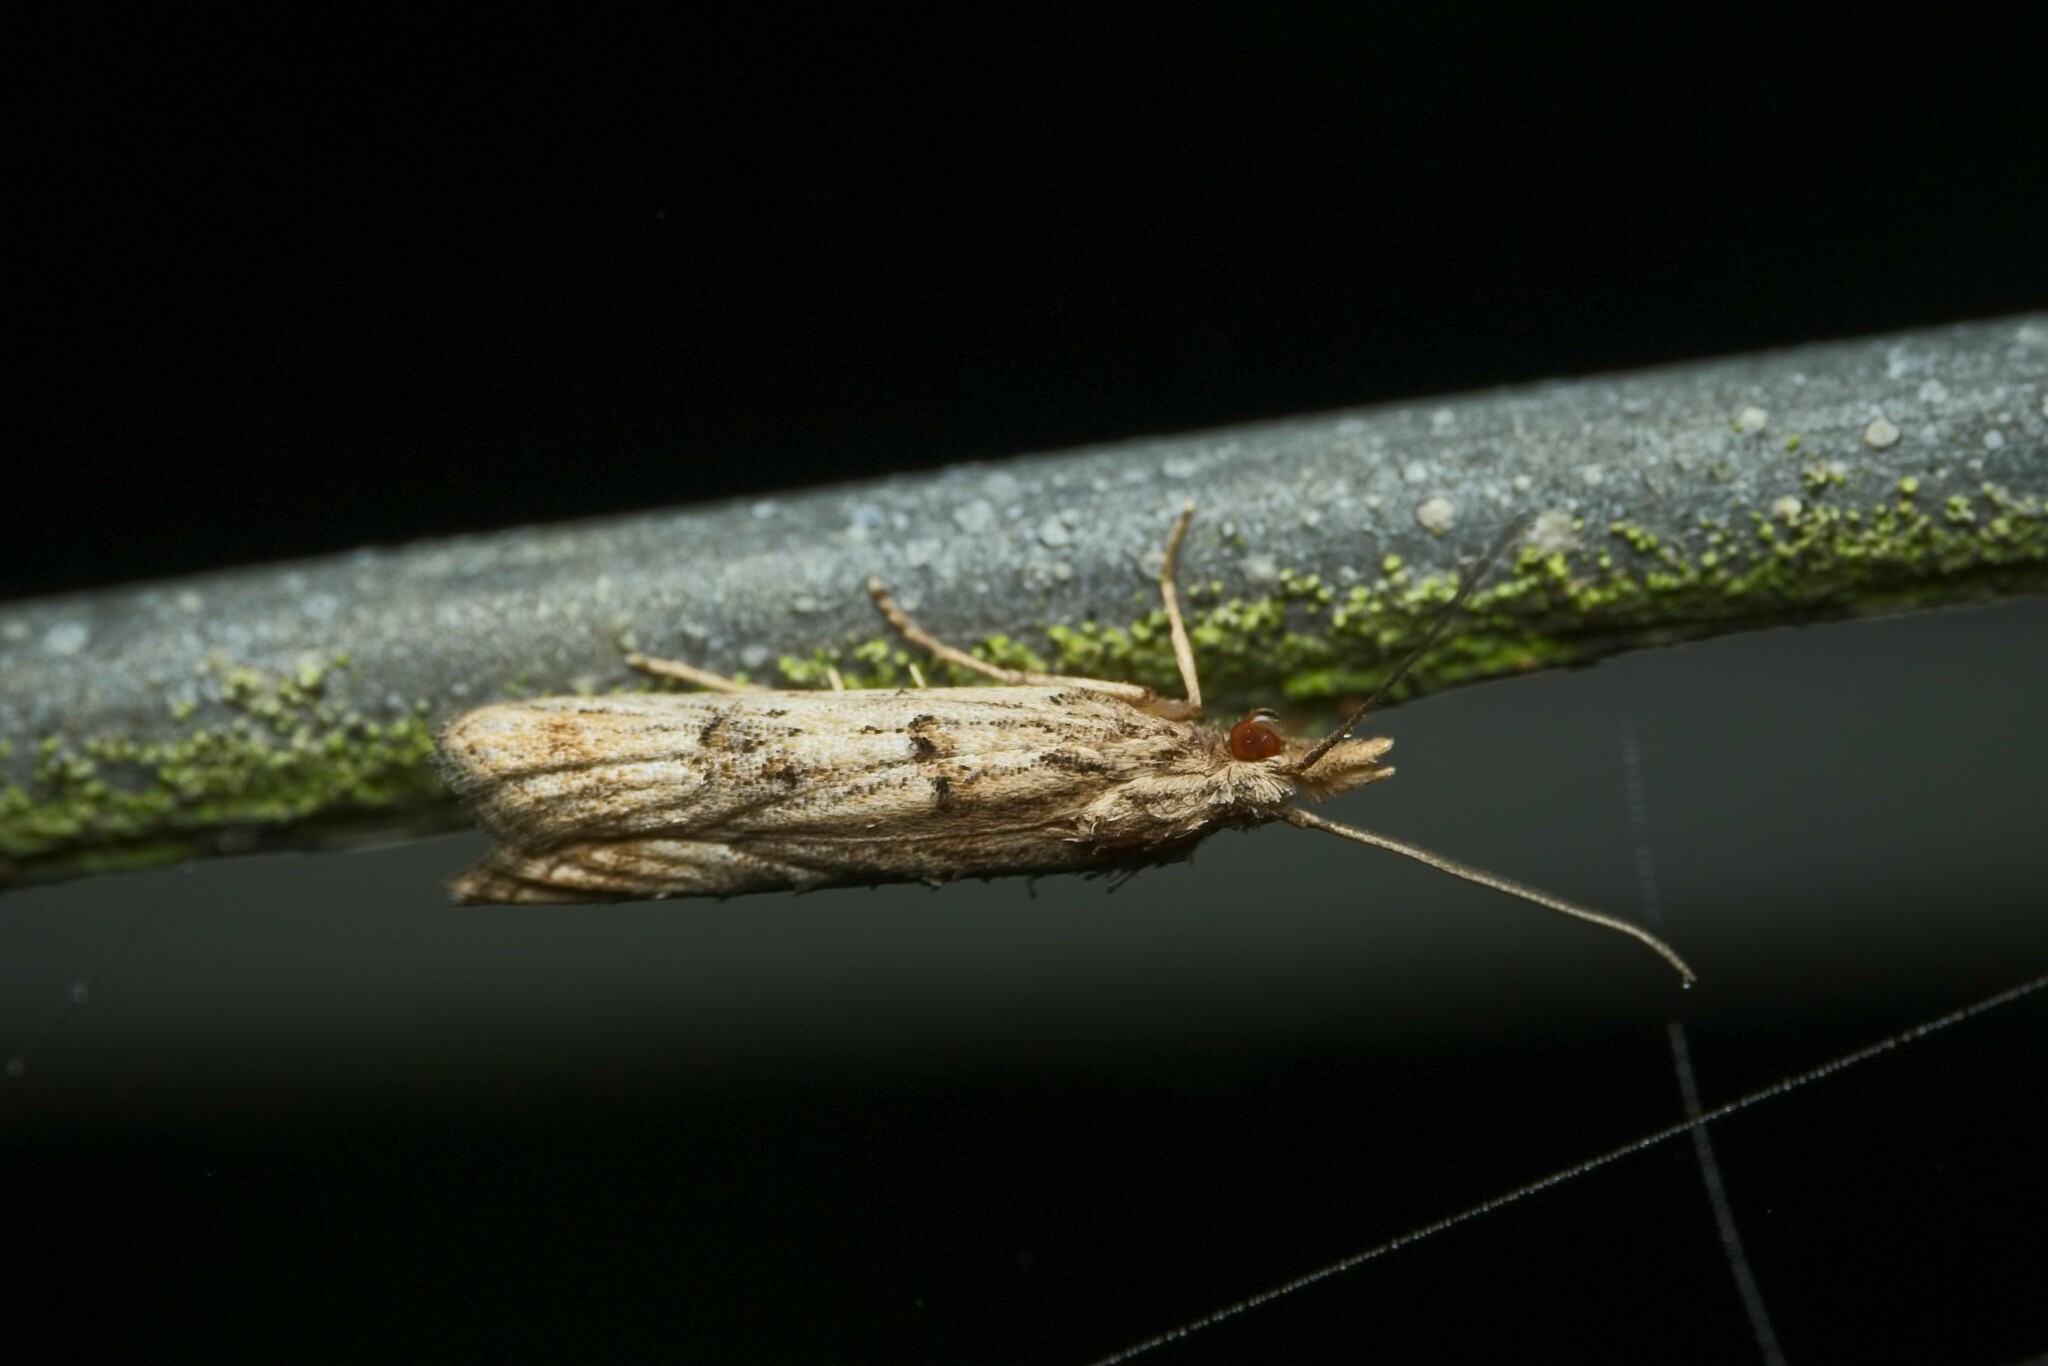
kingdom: Animalia
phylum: Arthropoda
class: Insecta
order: Lepidoptera
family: Carposinidae
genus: Carposina
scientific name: Carposina neurophorella
